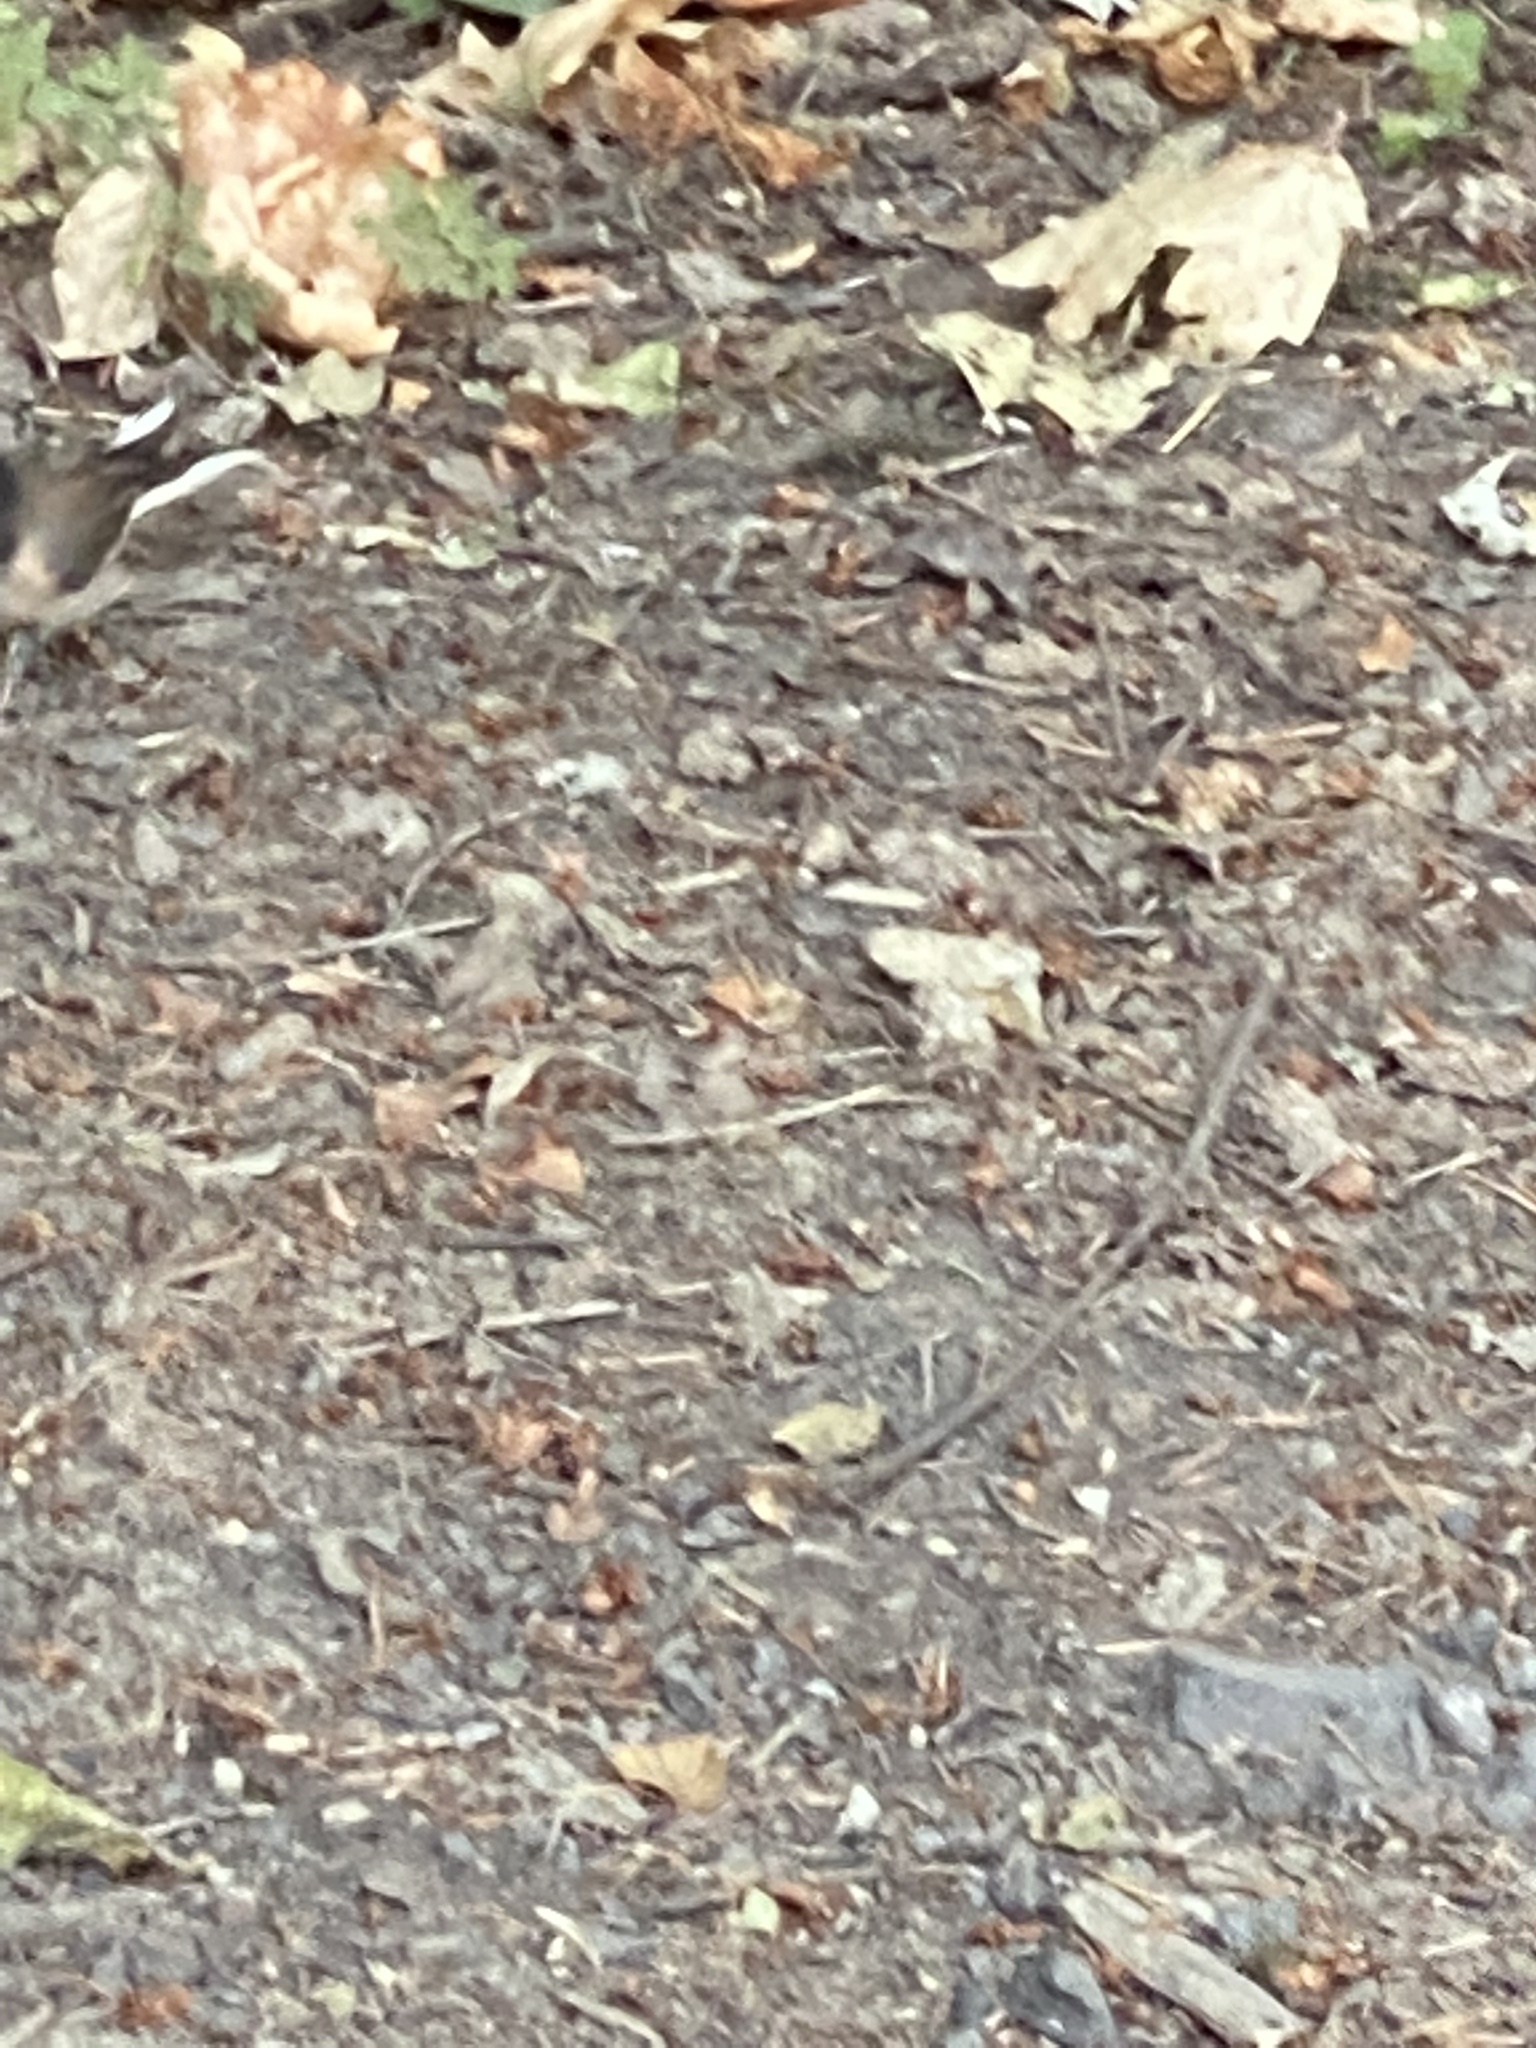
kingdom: Animalia
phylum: Chordata
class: Aves
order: Passeriformes
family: Passerellidae
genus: Junco
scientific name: Junco hyemalis
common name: Dark-eyed junco
